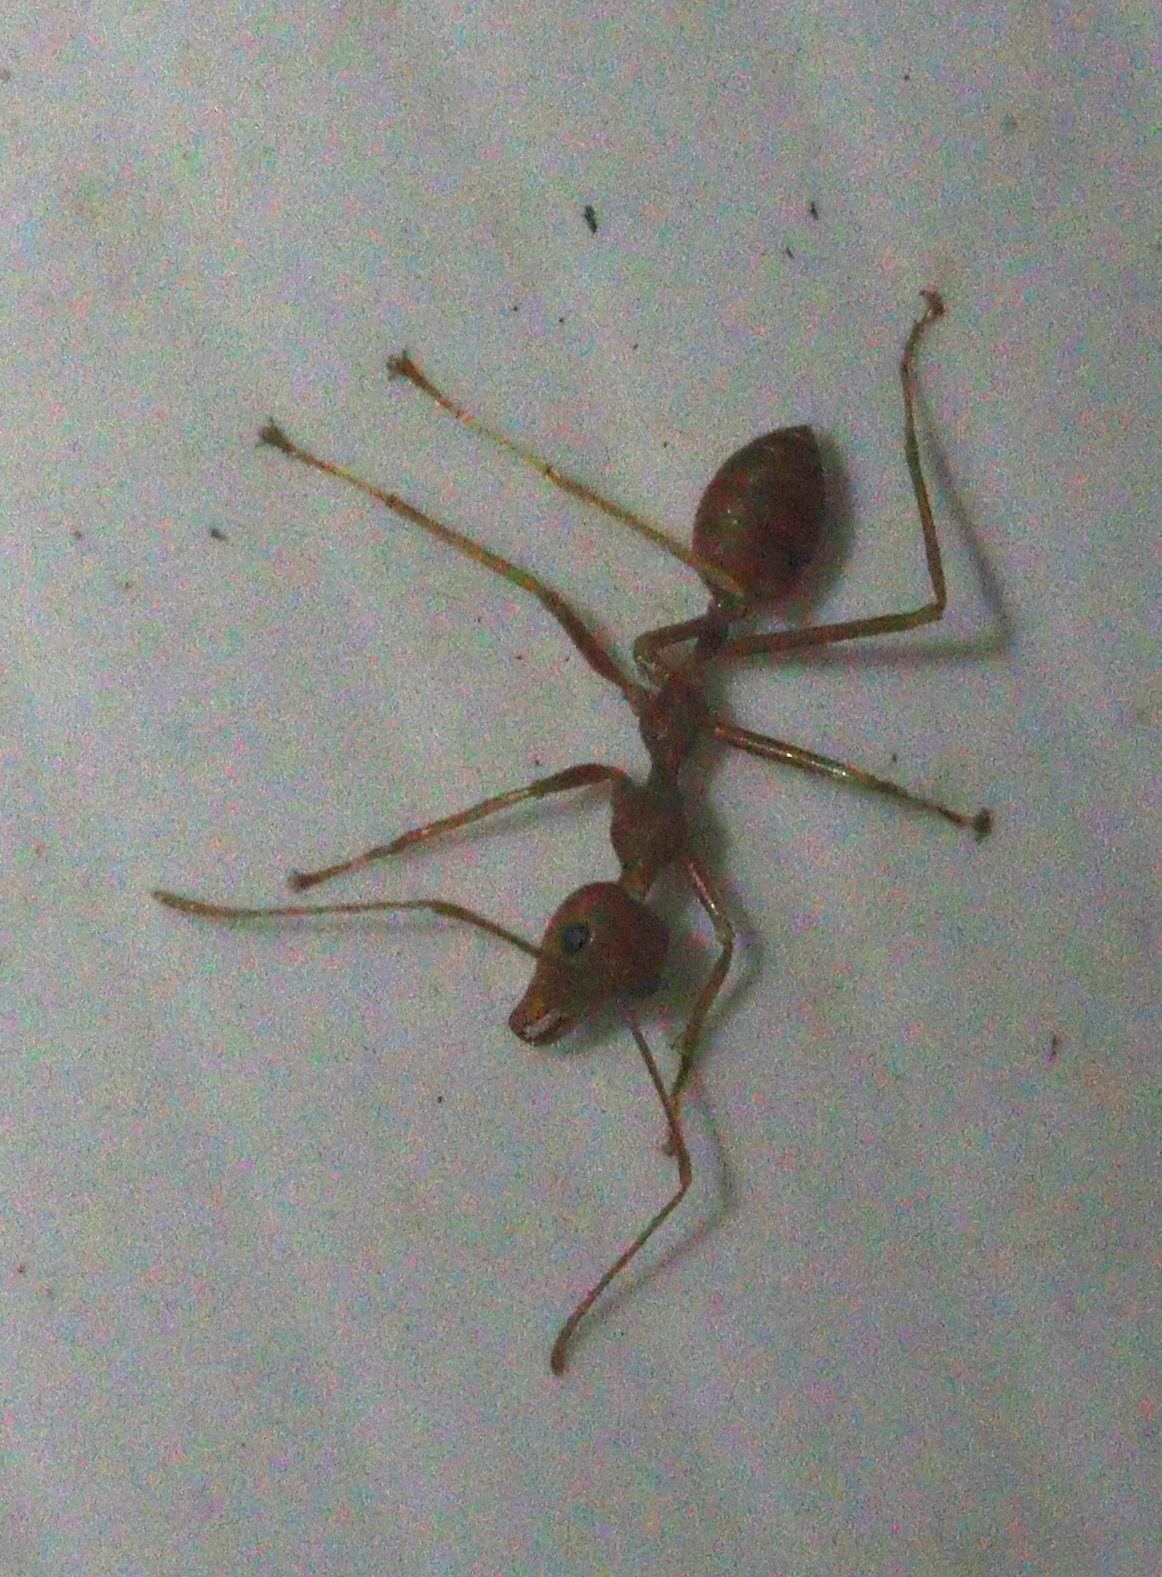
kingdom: Animalia
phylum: Arthropoda
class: Insecta
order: Hymenoptera
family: Formicidae
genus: Oecophylla
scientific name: Oecophylla smaragdina
